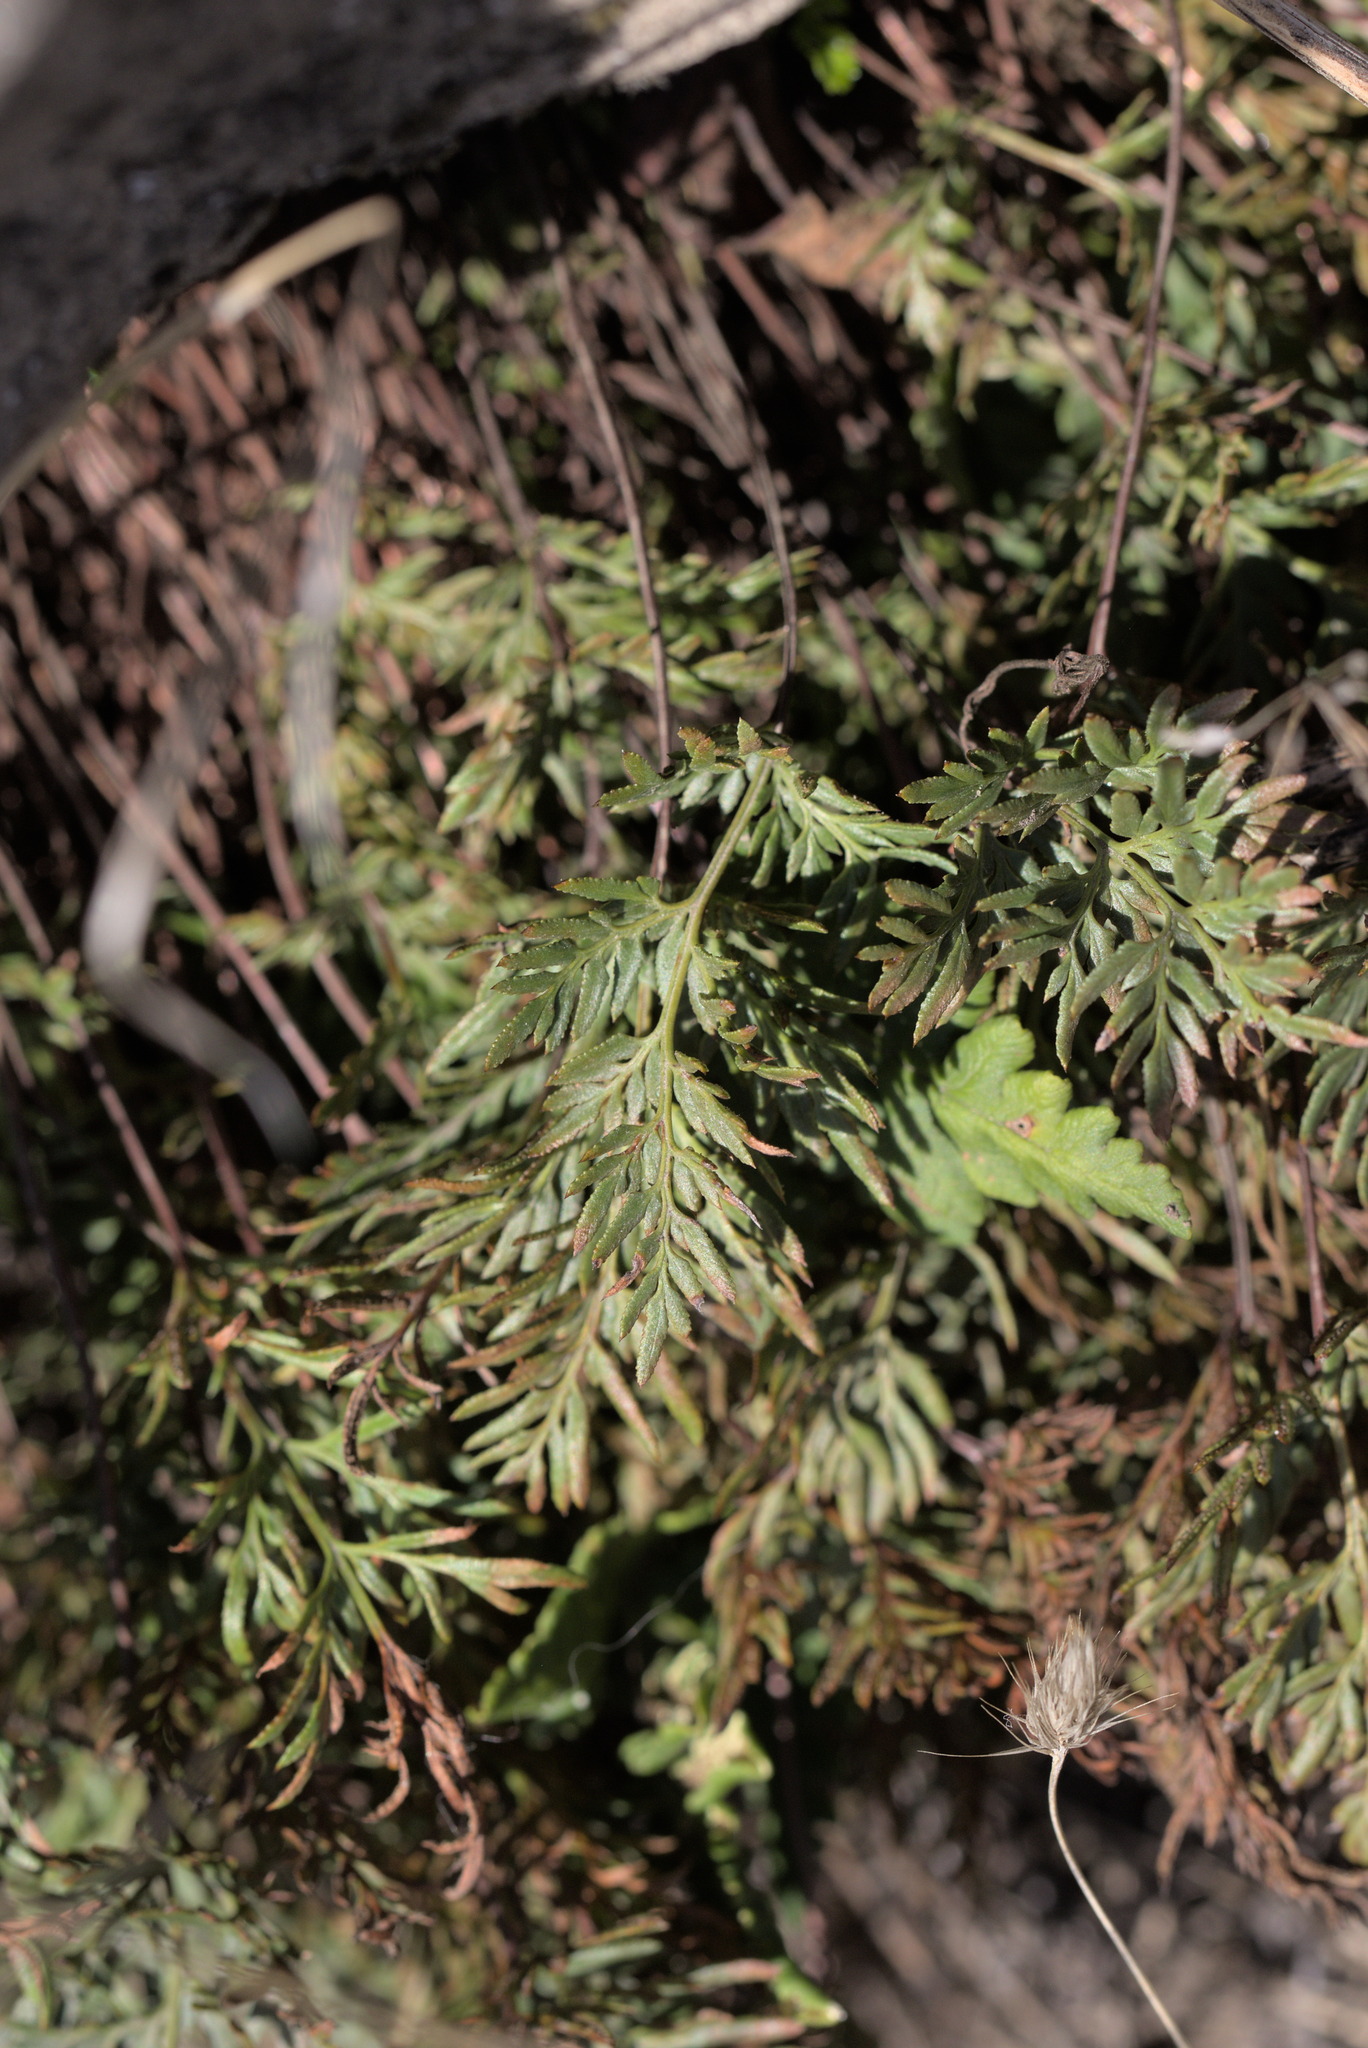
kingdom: Plantae
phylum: Tracheophyta
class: Polypodiopsida
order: Polypodiales
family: Pteridaceae
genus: Aspidotis
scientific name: Aspidotis densa
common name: Indian's dream
